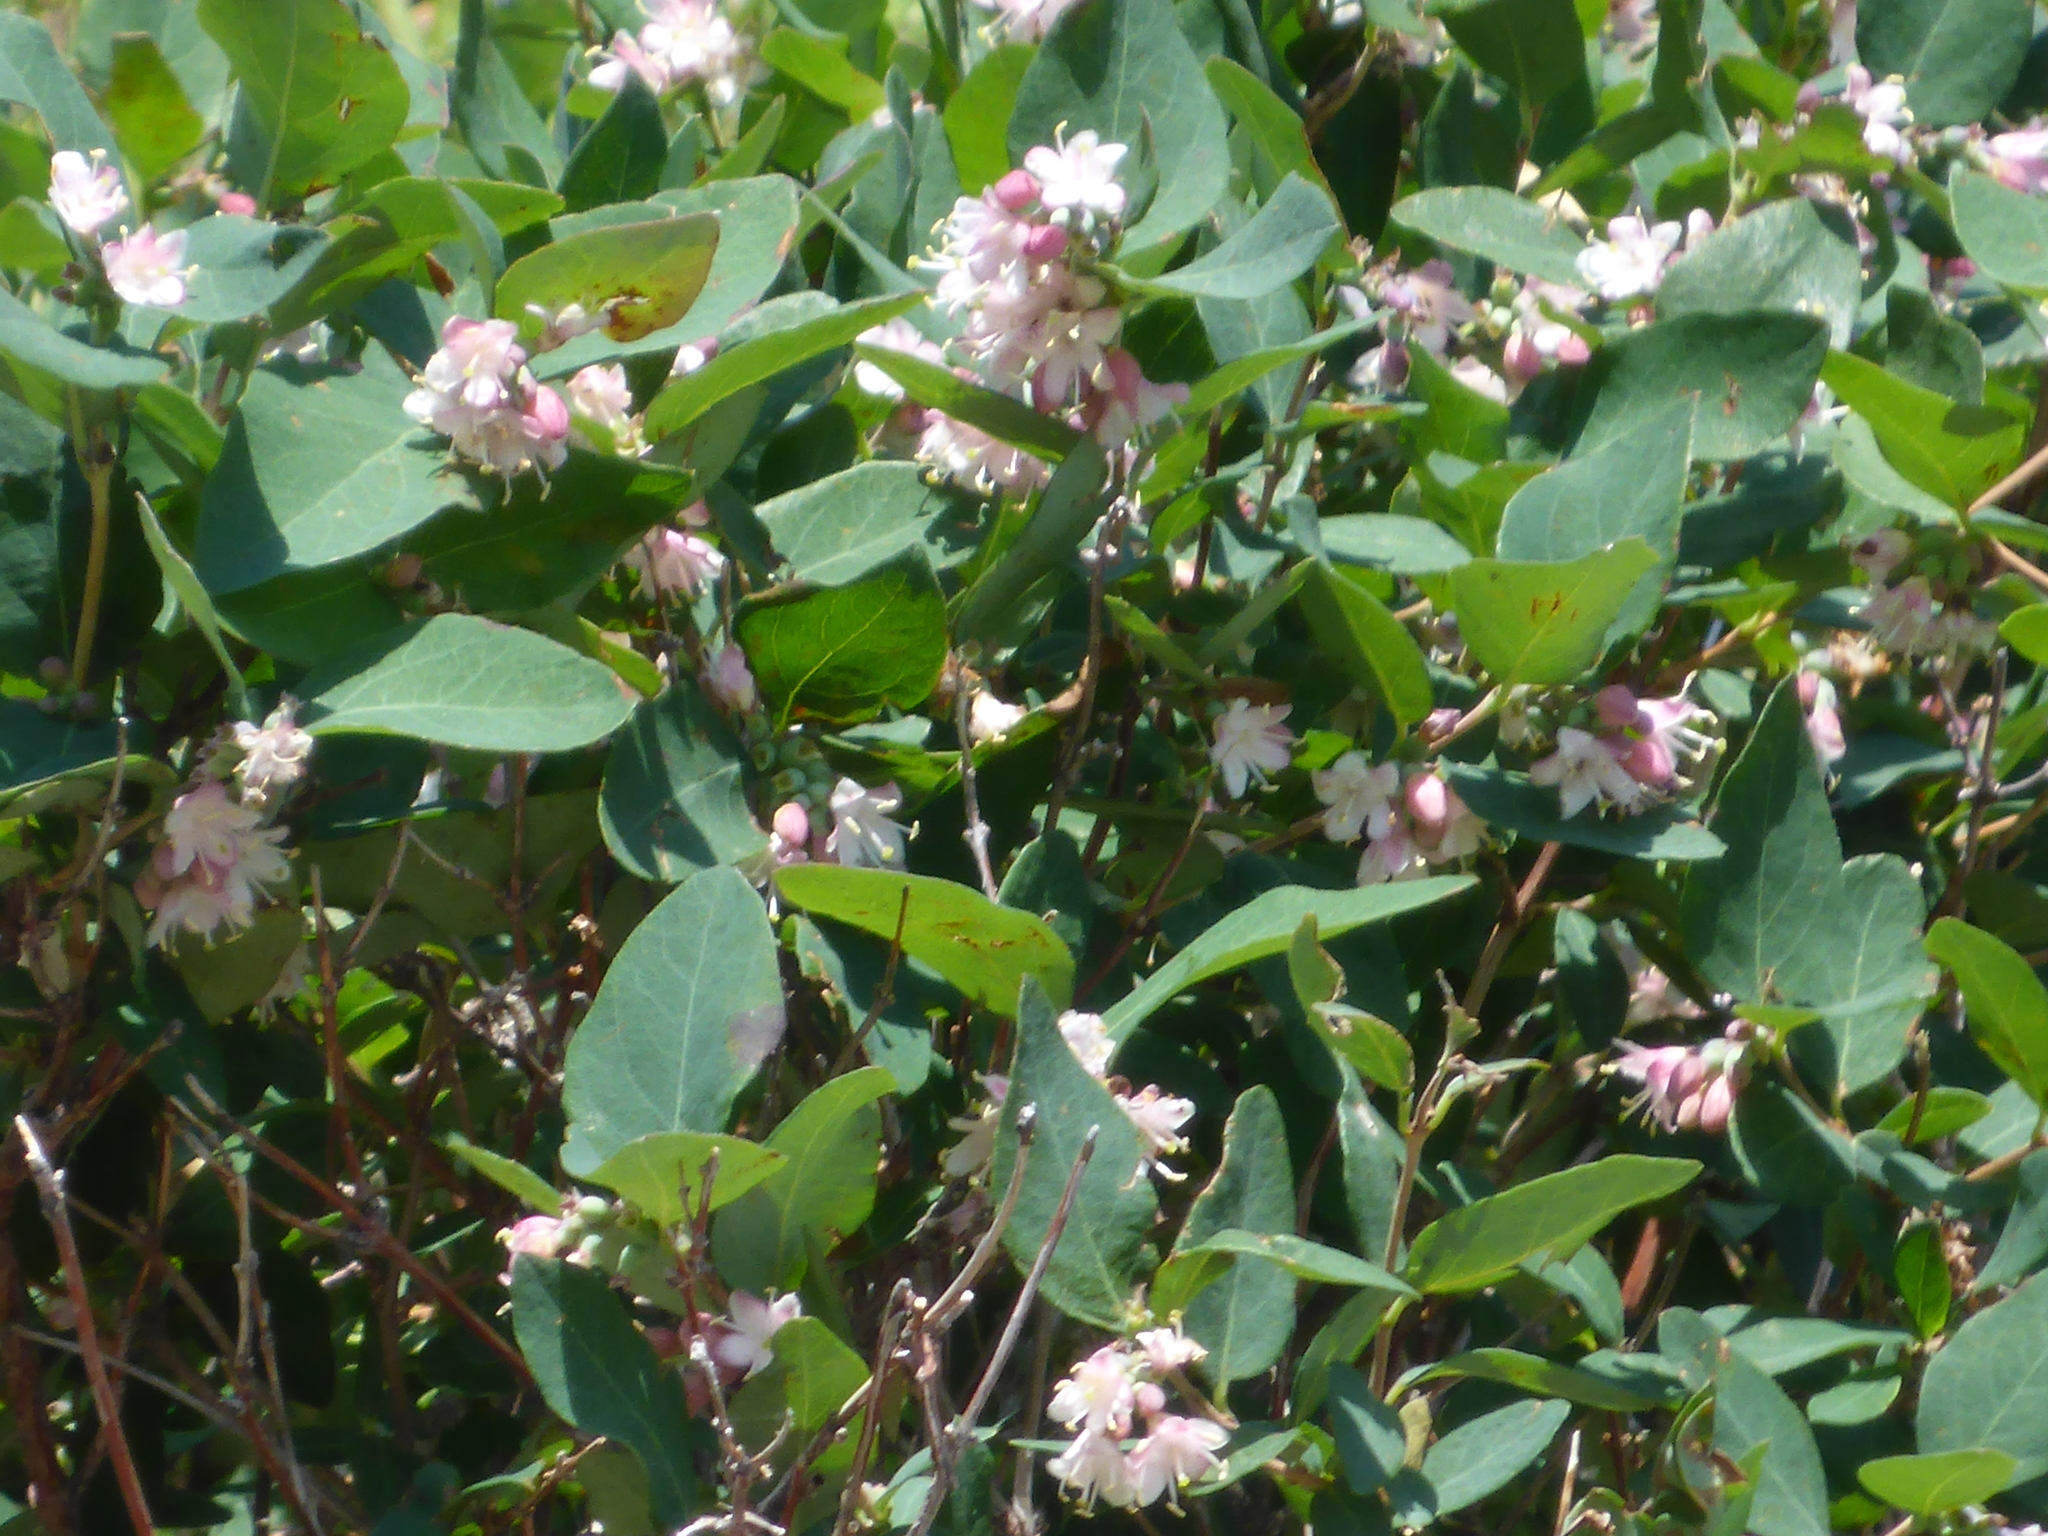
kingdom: Plantae
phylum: Tracheophyta
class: Magnoliopsida
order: Dipsacales
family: Caprifoliaceae
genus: Symphoricarpos
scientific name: Symphoricarpos occidentalis
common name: Wolfberry
